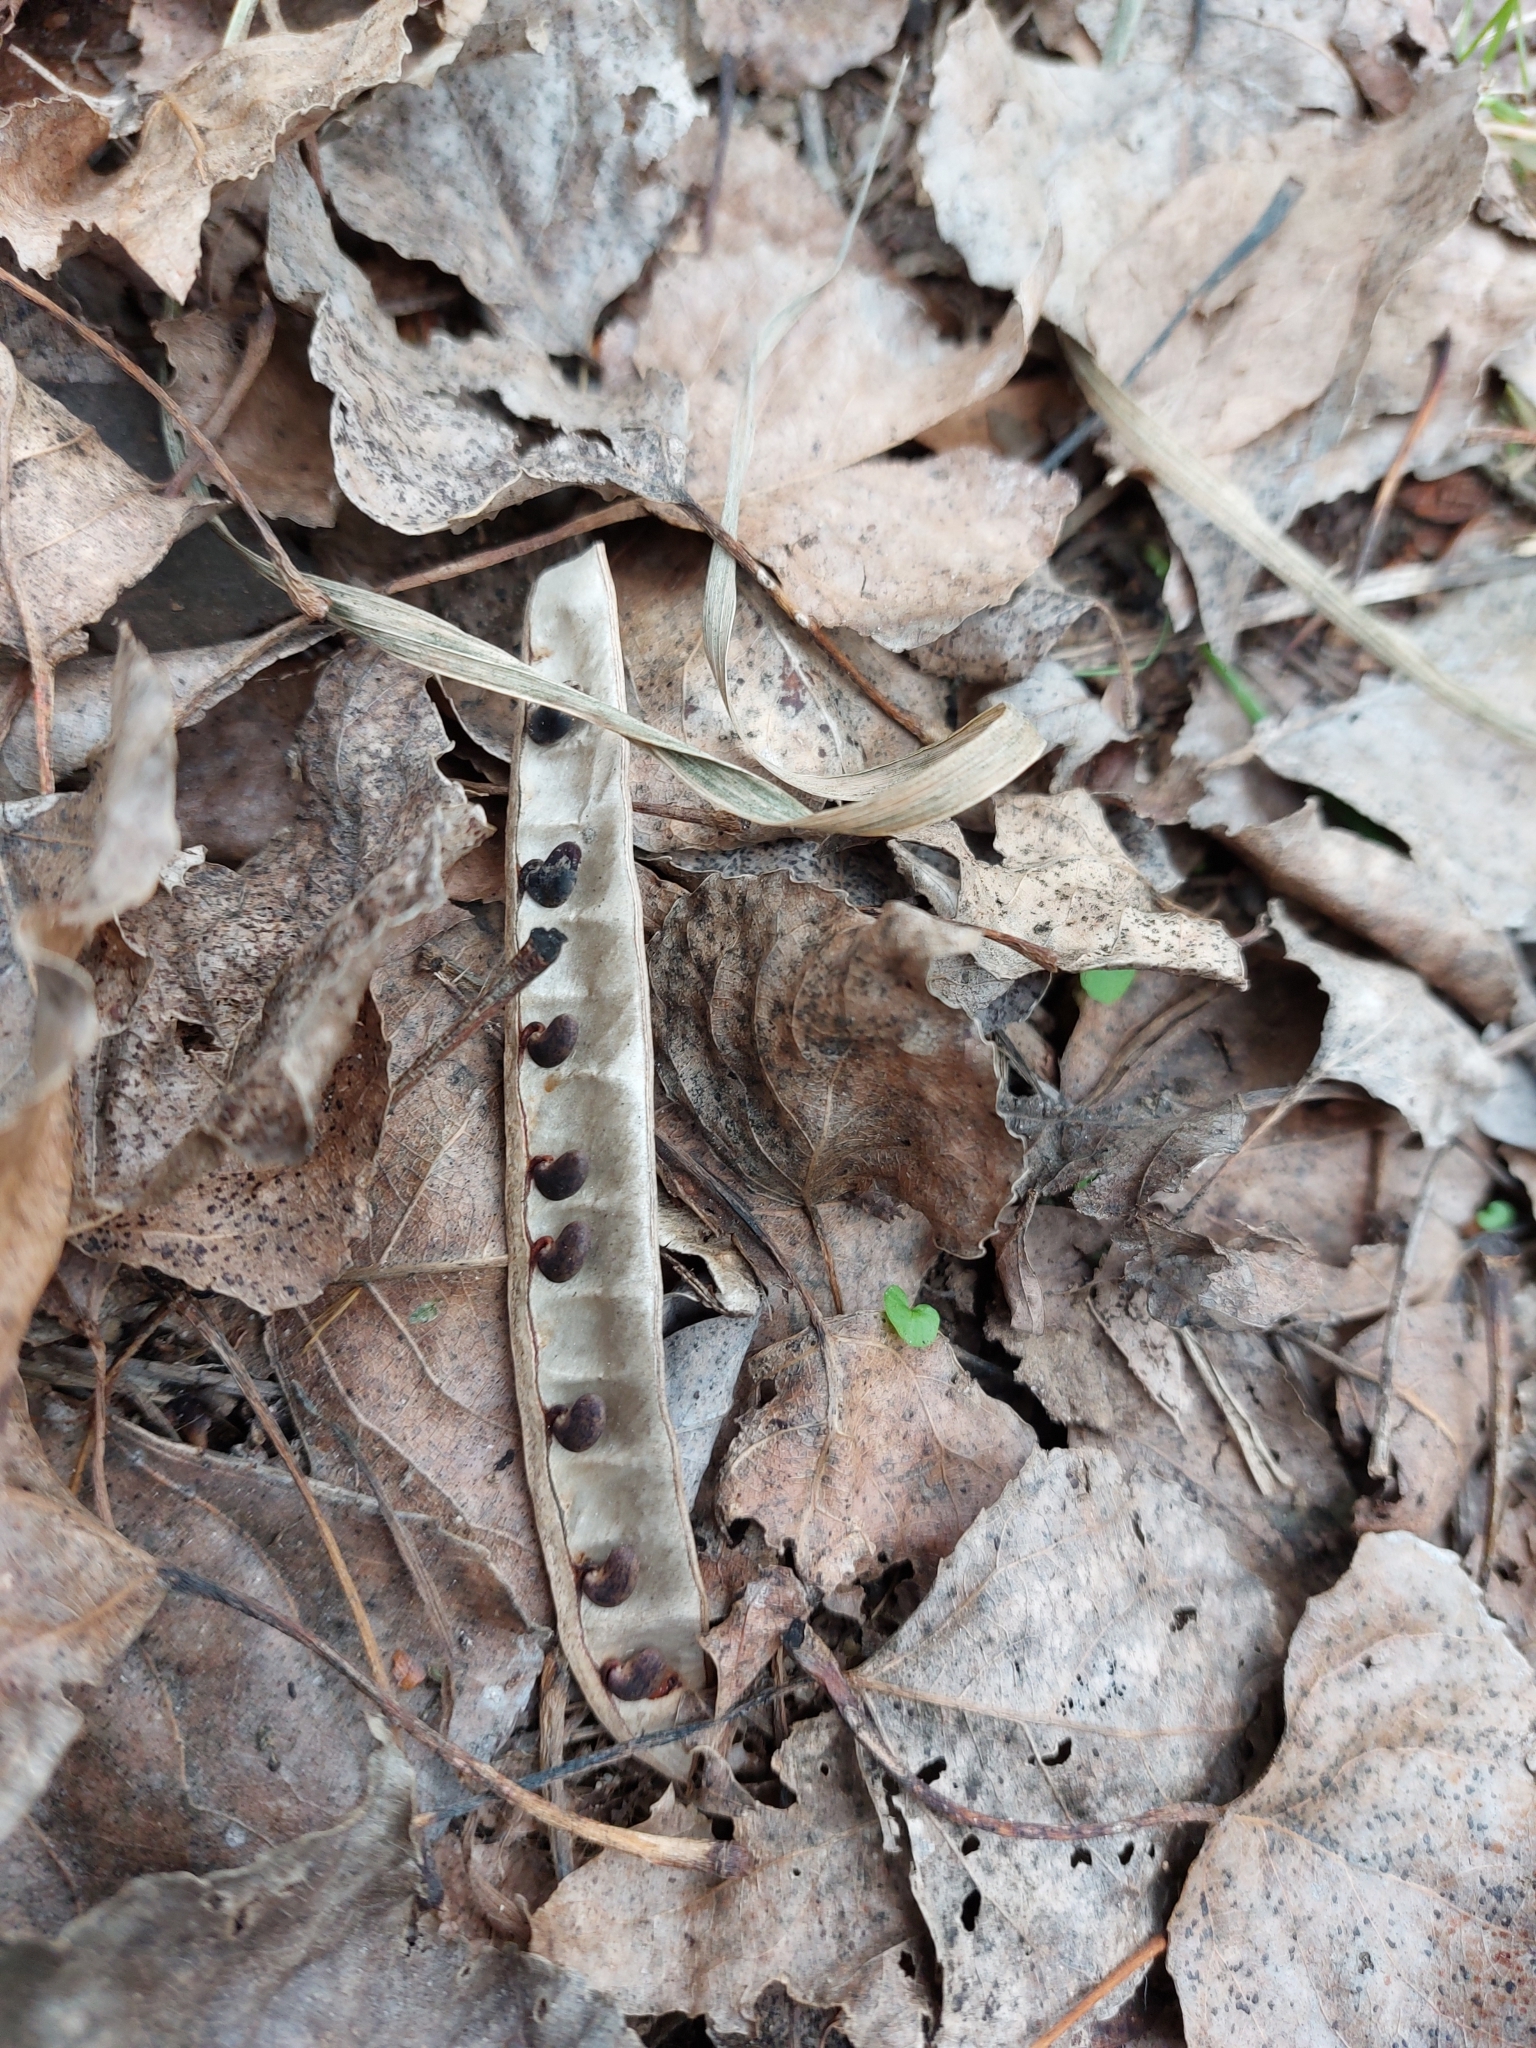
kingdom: Plantae
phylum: Tracheophyta
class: Magnoliopsida
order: Fabales
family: Fabaceae
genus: Robinia
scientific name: Robinia pseudoacacia
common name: Black locust
